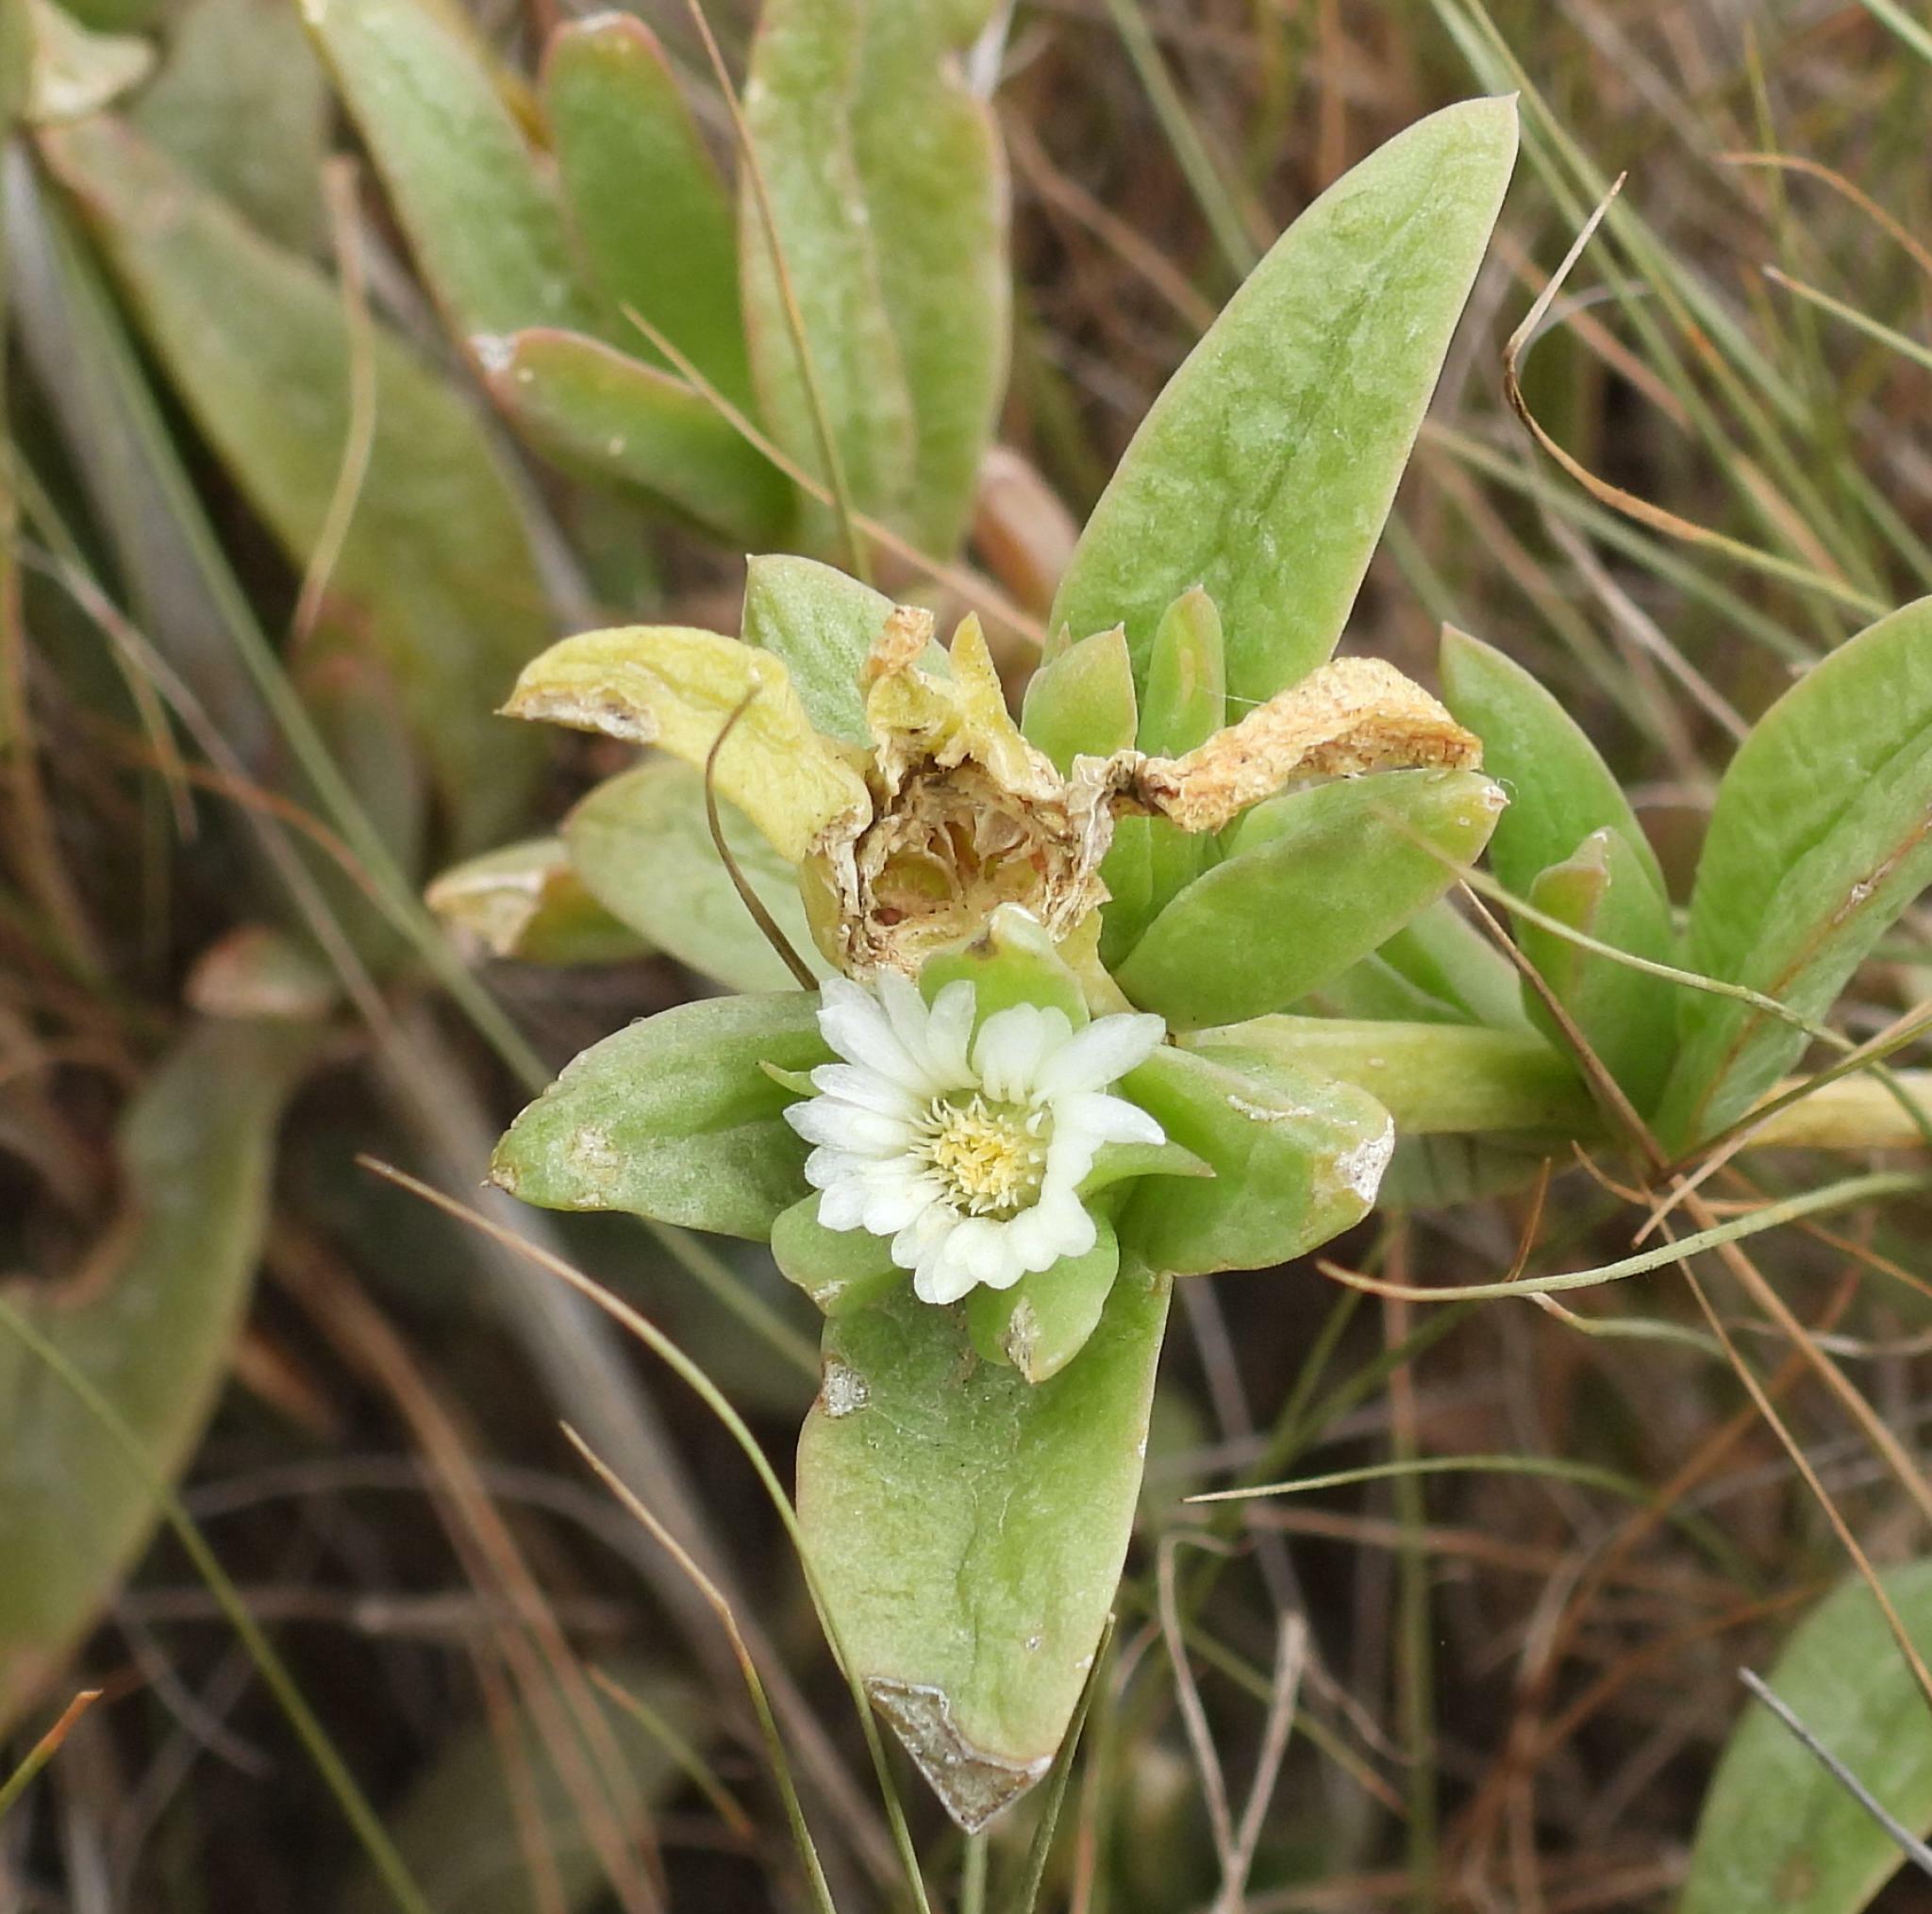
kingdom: Plantae
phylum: Tracheophyta
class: Magnoliopsida
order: Caryophyllales
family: Aizoaceae
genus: Delosperma
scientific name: Delosperma laxipetalum
